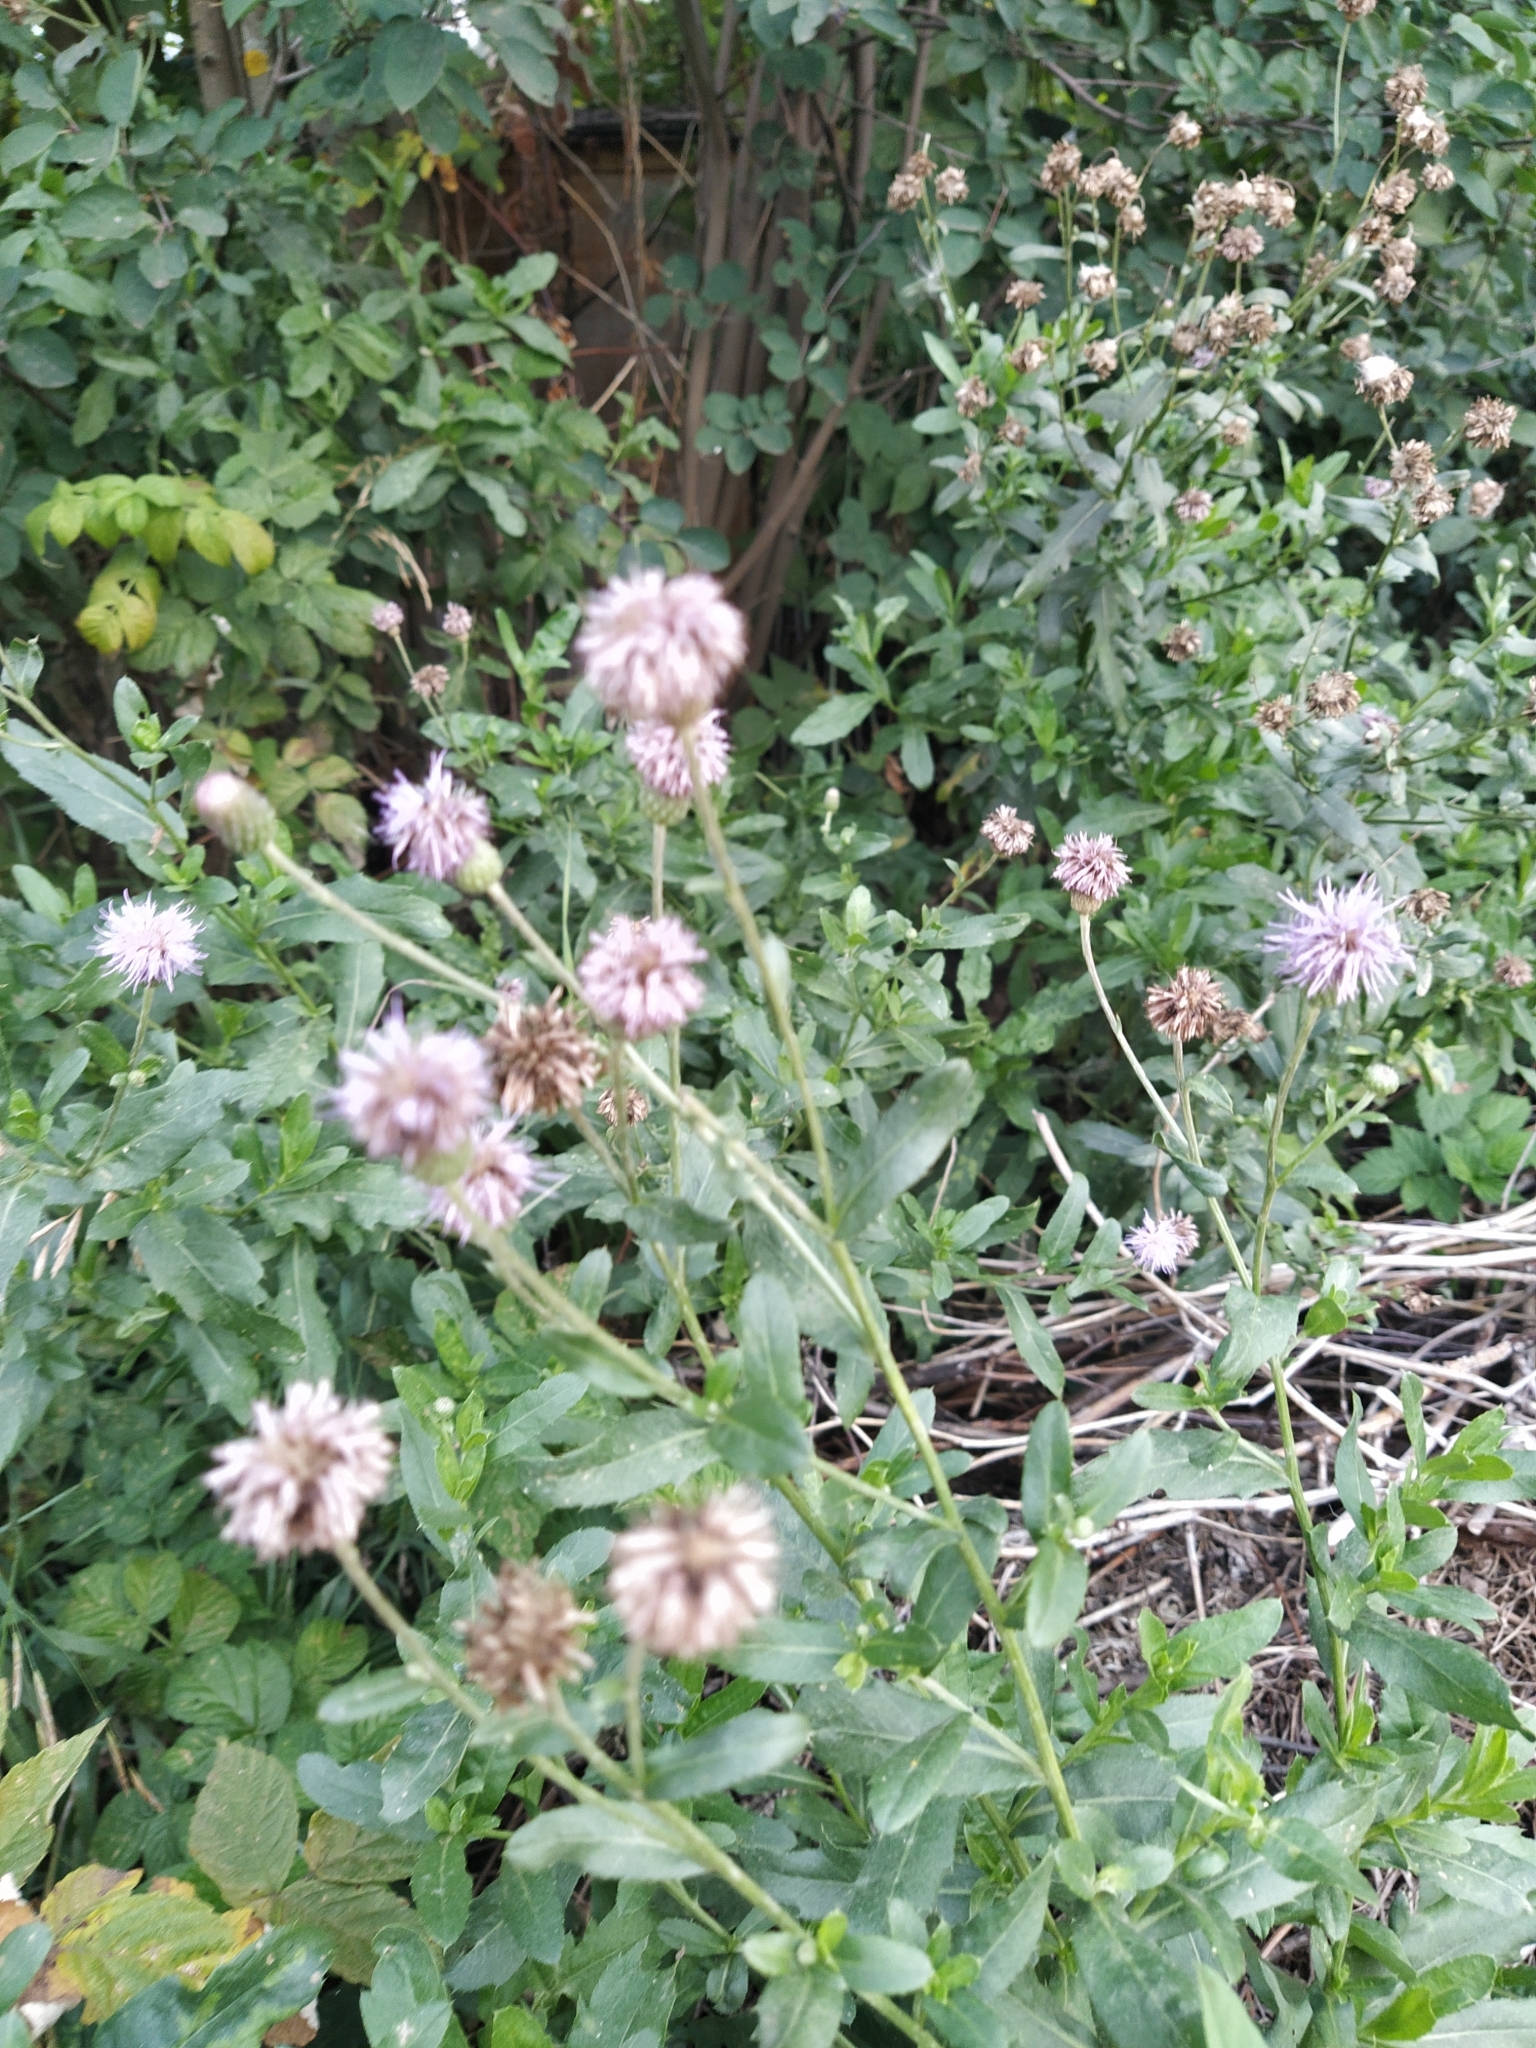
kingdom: Plantae
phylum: Tracheophyta
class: Magnoliopsida
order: Asterales
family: Asteraceae
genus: Cirsium
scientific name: Cirsium arvense
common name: Creeping thistle
